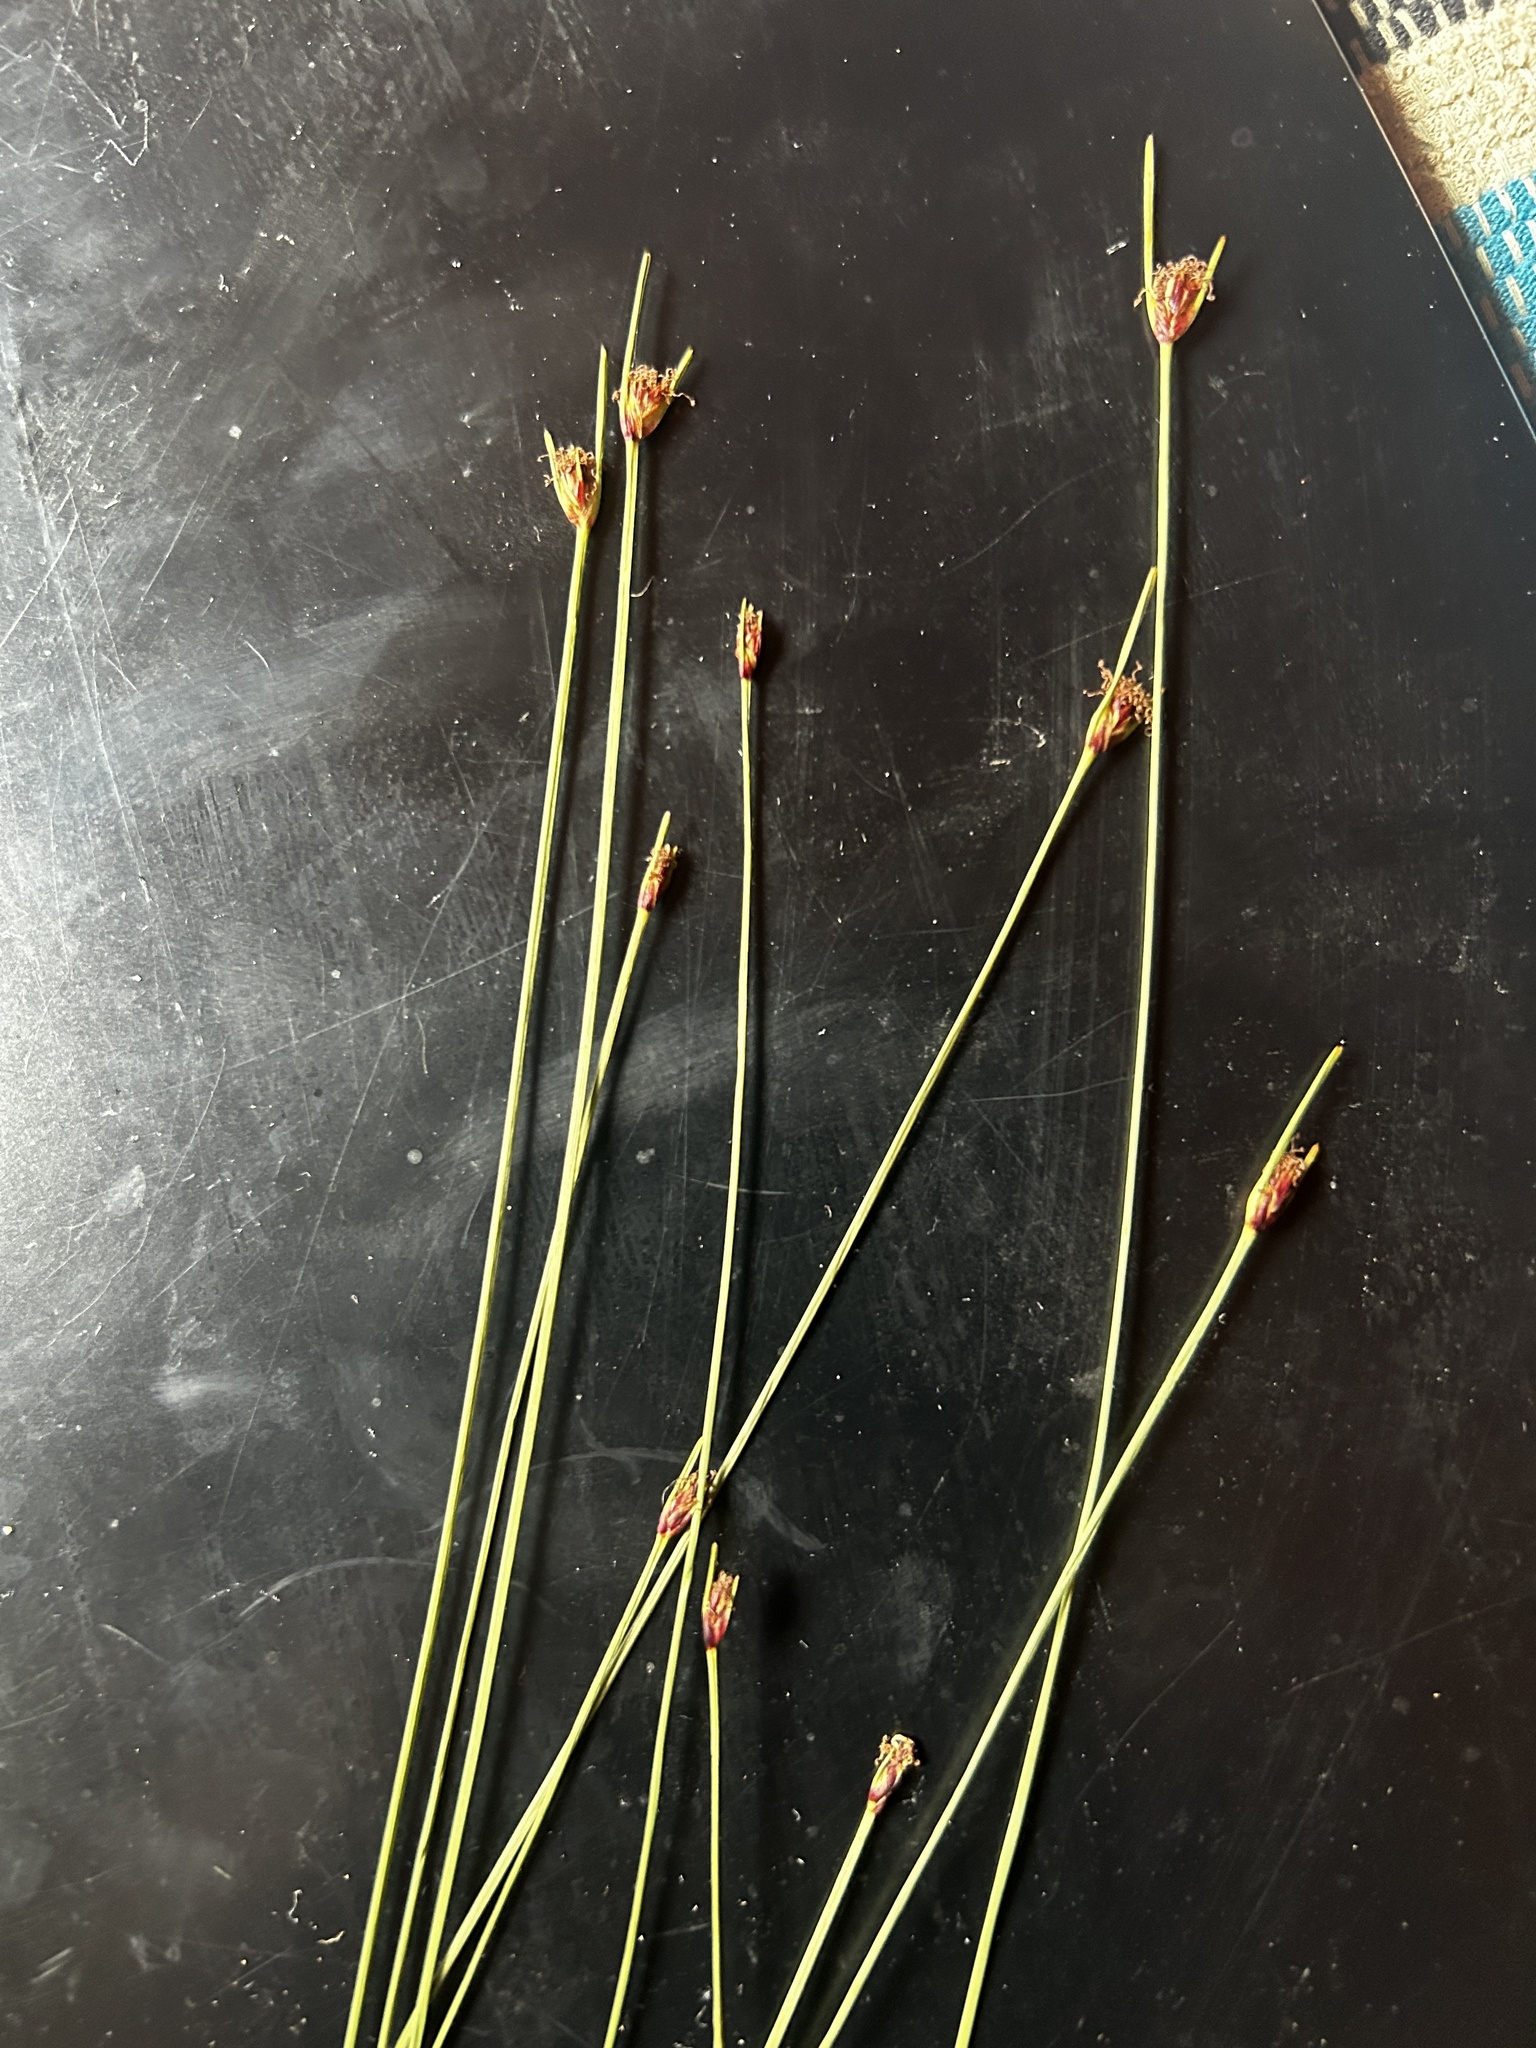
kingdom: Plantae
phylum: Tracheophyta
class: Liliopsida
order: Poales
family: Cyperaceae
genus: Ficinia
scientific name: Ficinia dunensis
